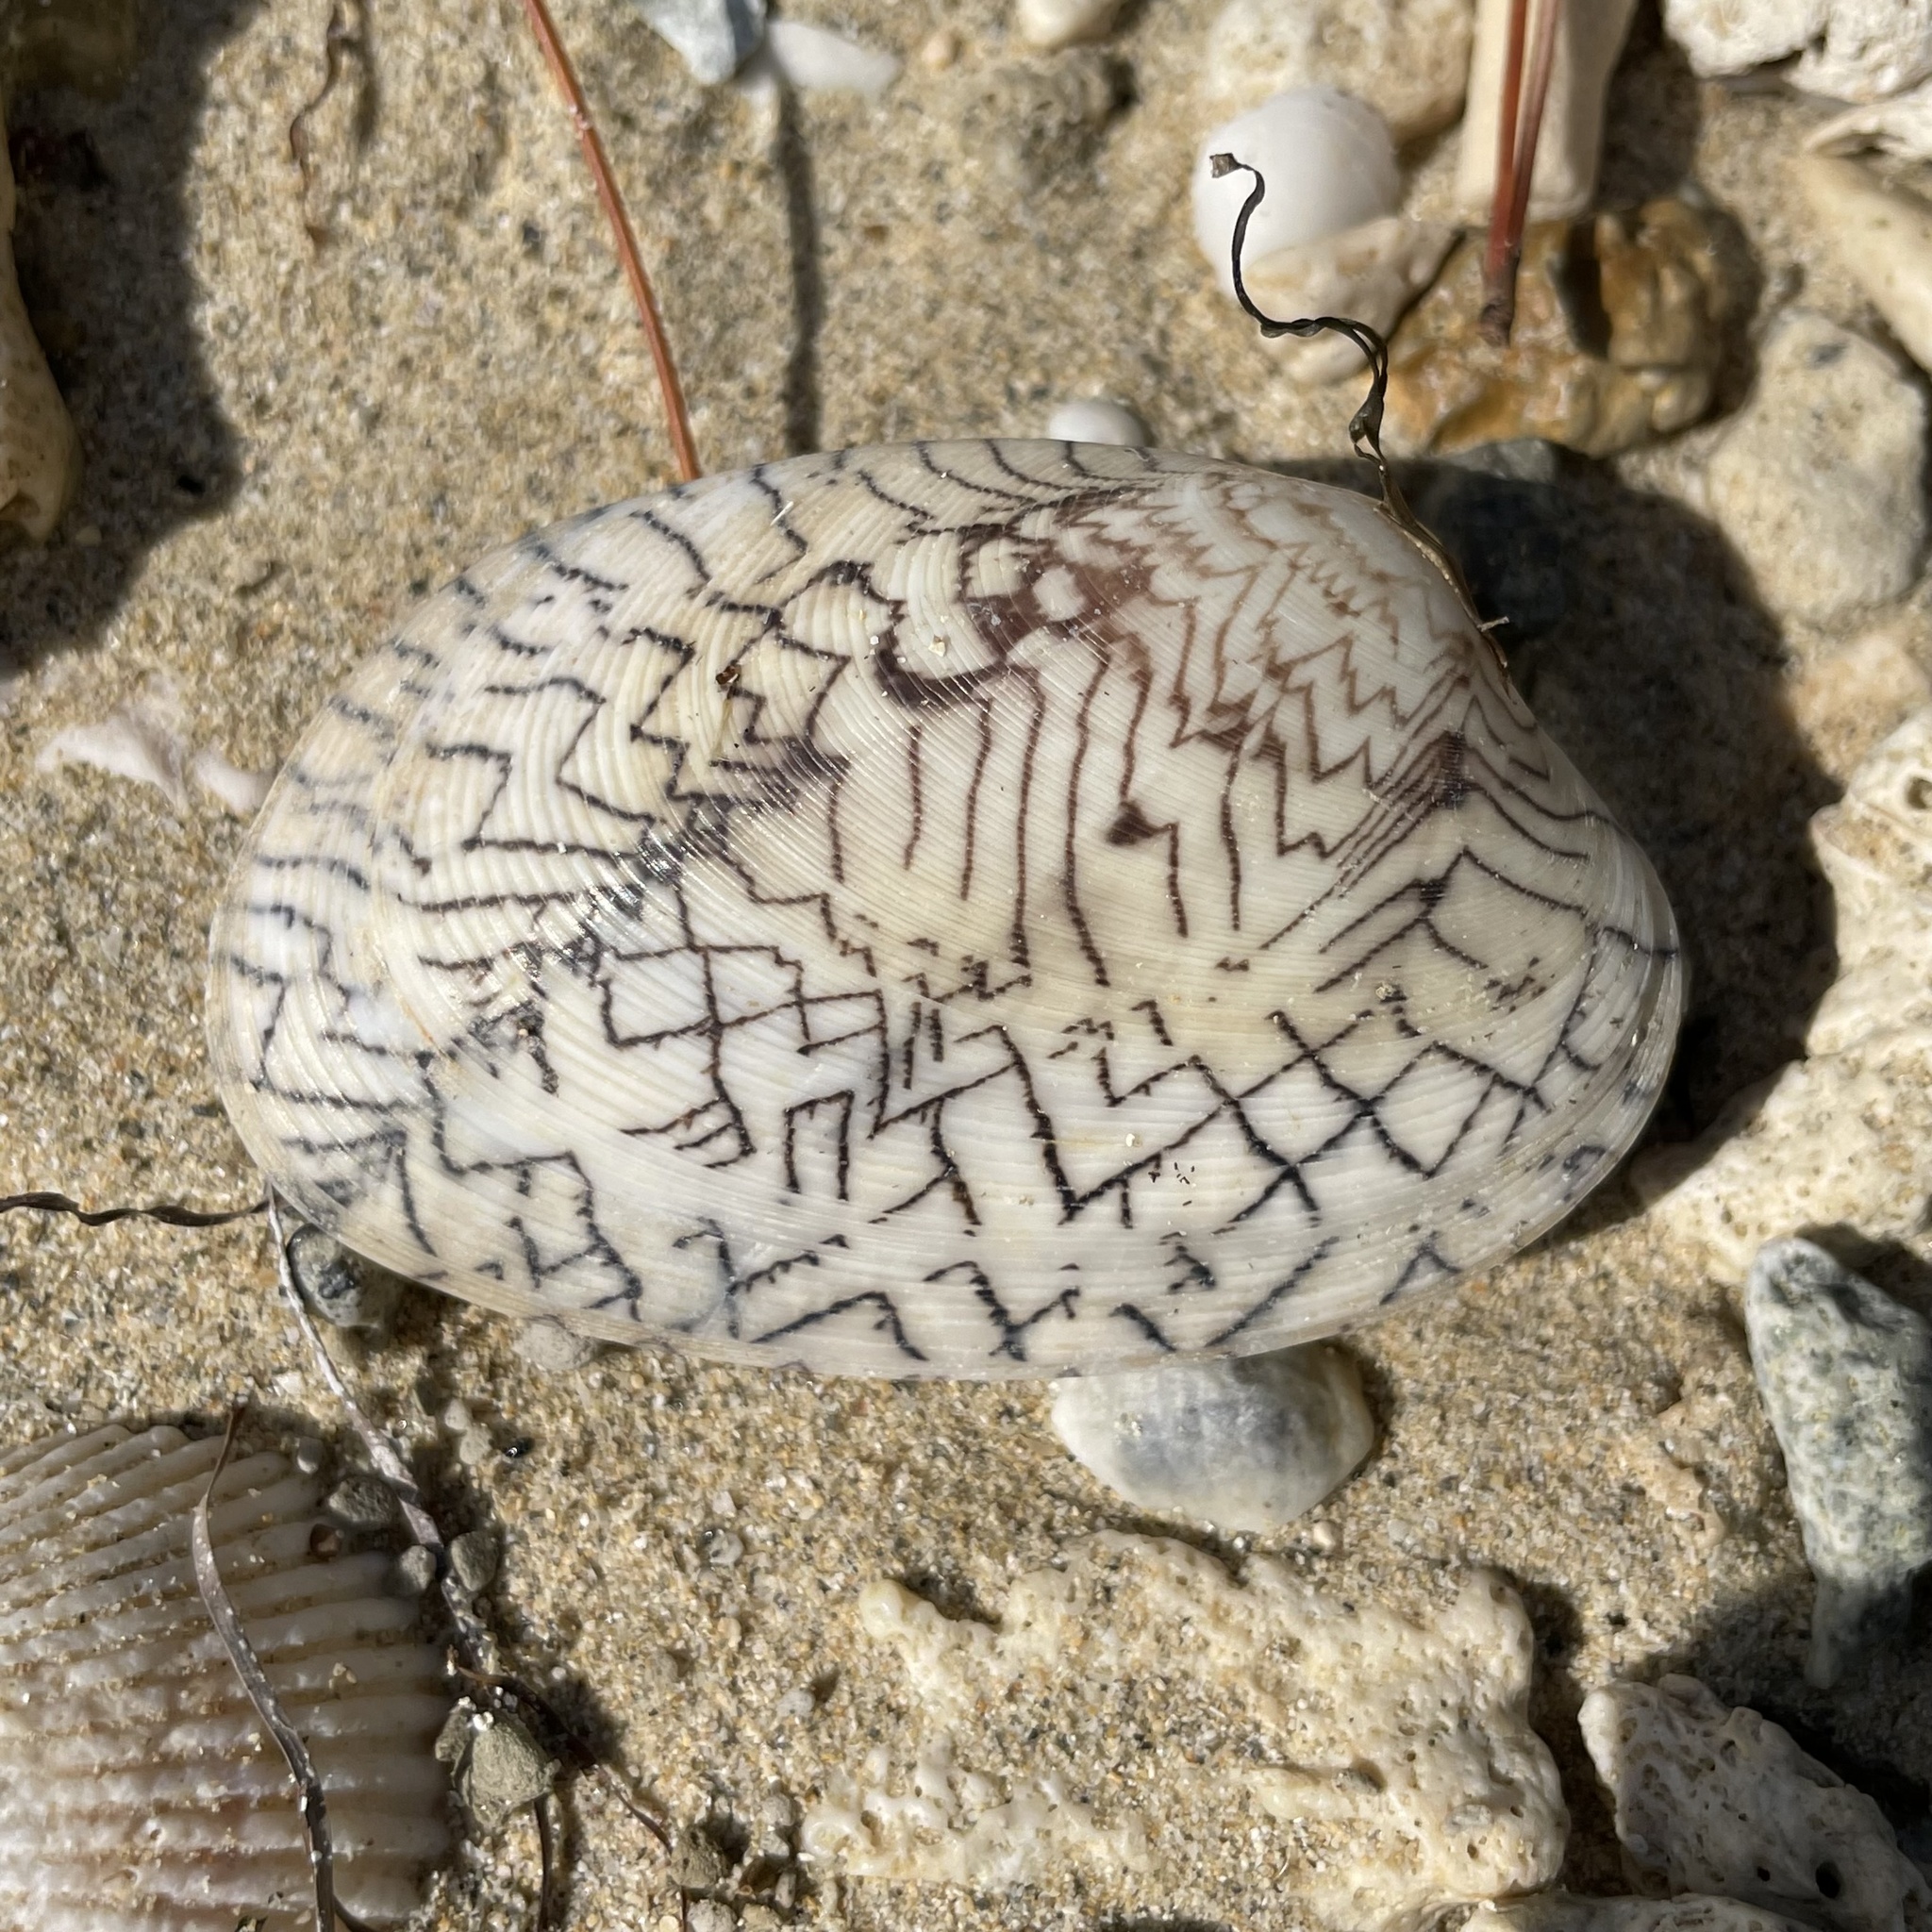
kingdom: Animalia
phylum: Mollusca
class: Bivalvia
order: Venerida
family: Veneridae
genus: Tapes
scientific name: Tapes literatus
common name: Lettered carpet shell
